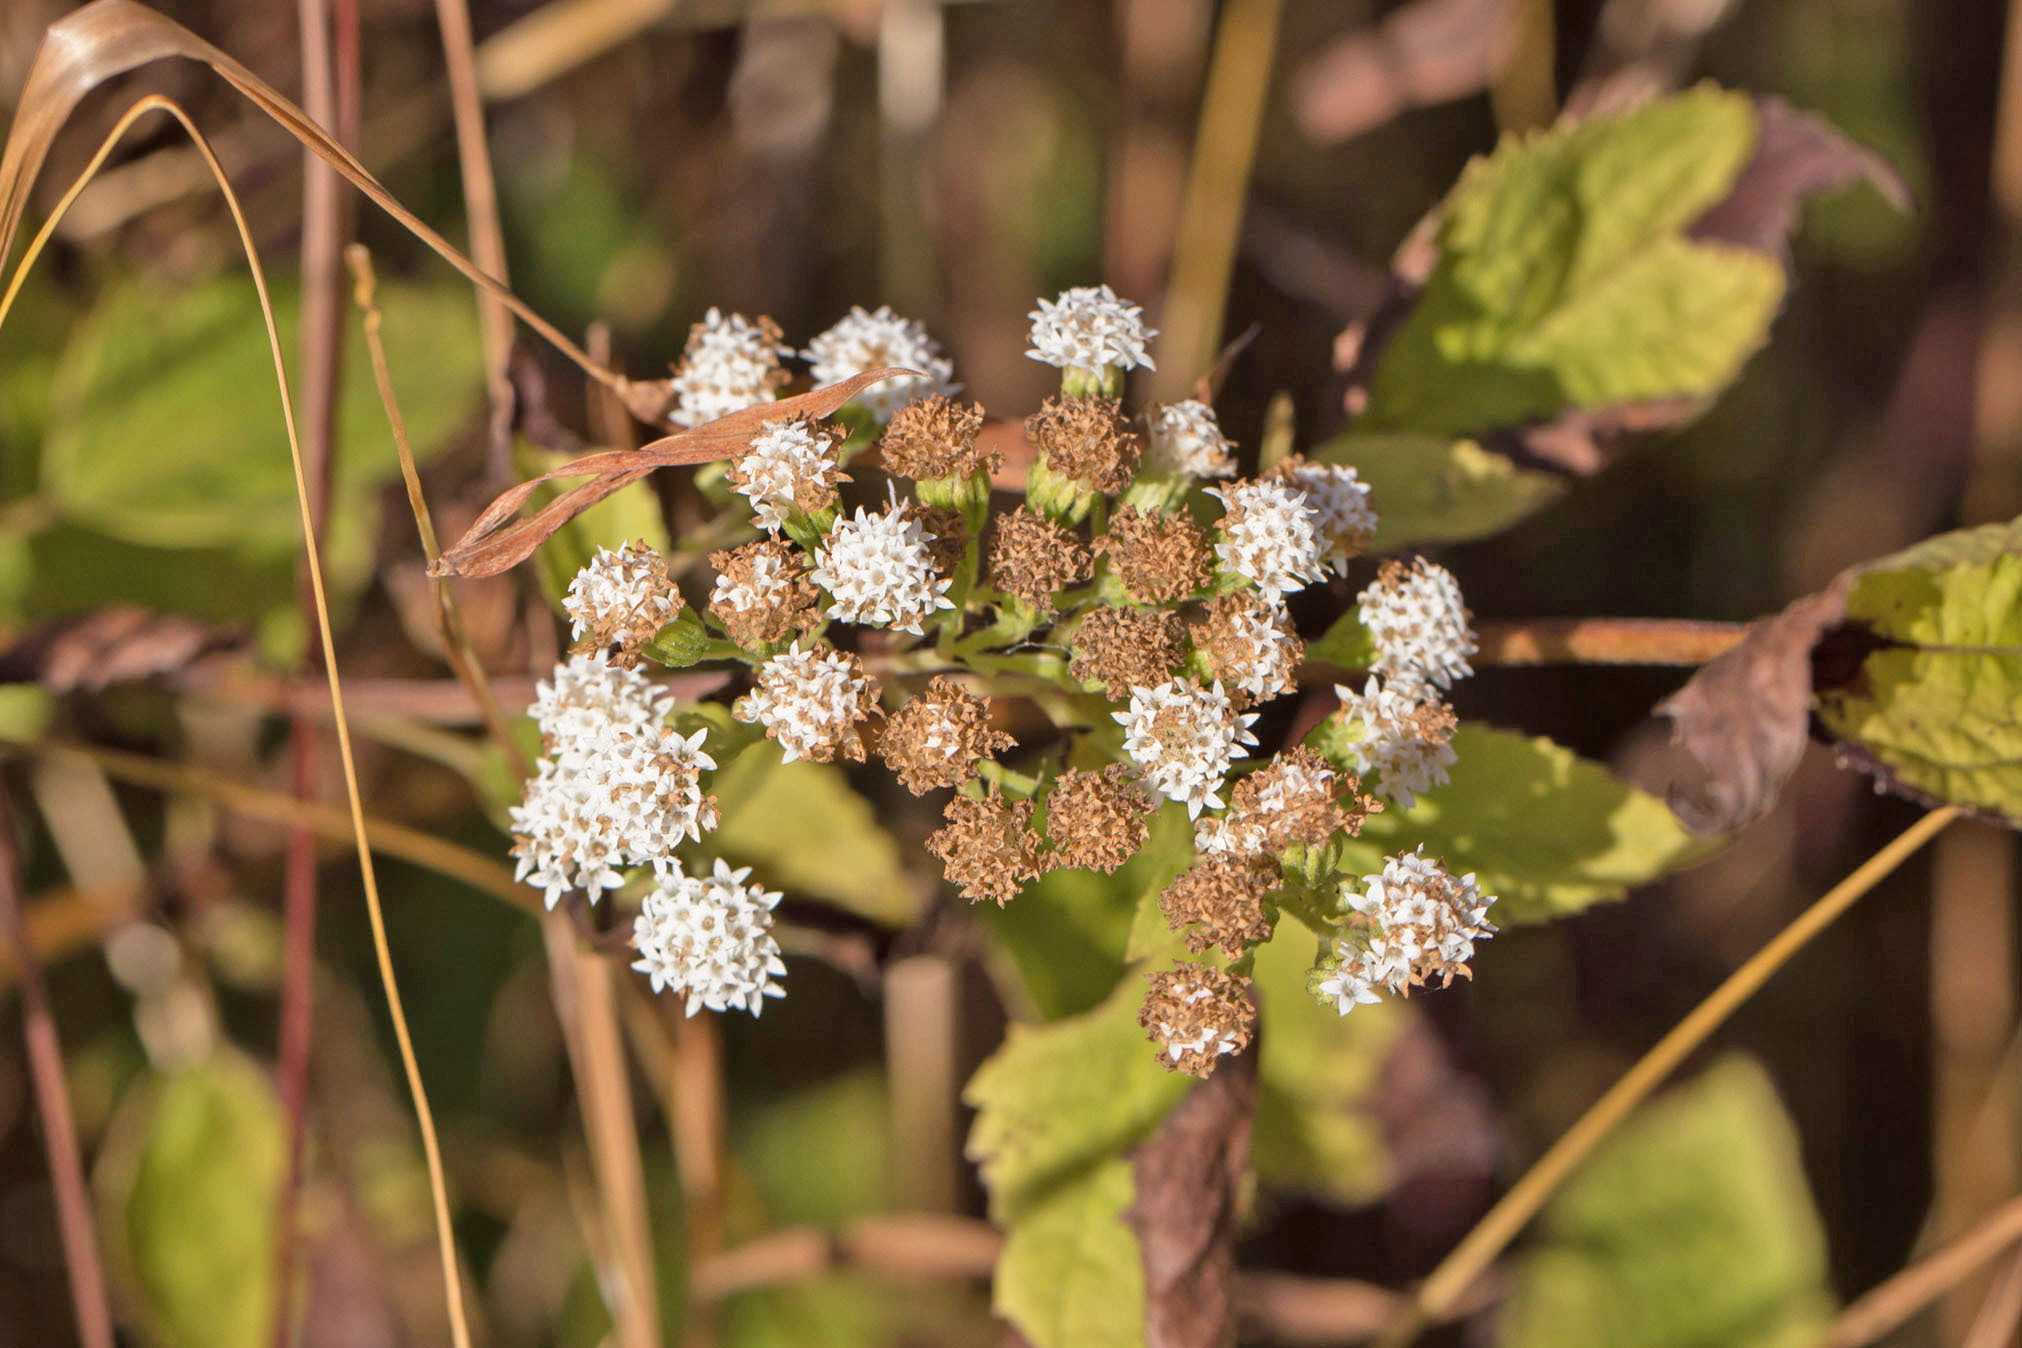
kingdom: Plantae
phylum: Tracheophyta
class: Magnoliopsida
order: Asterales
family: Asteraceae
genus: Ageratina
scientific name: Ageratina altissima
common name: White snakeroot
